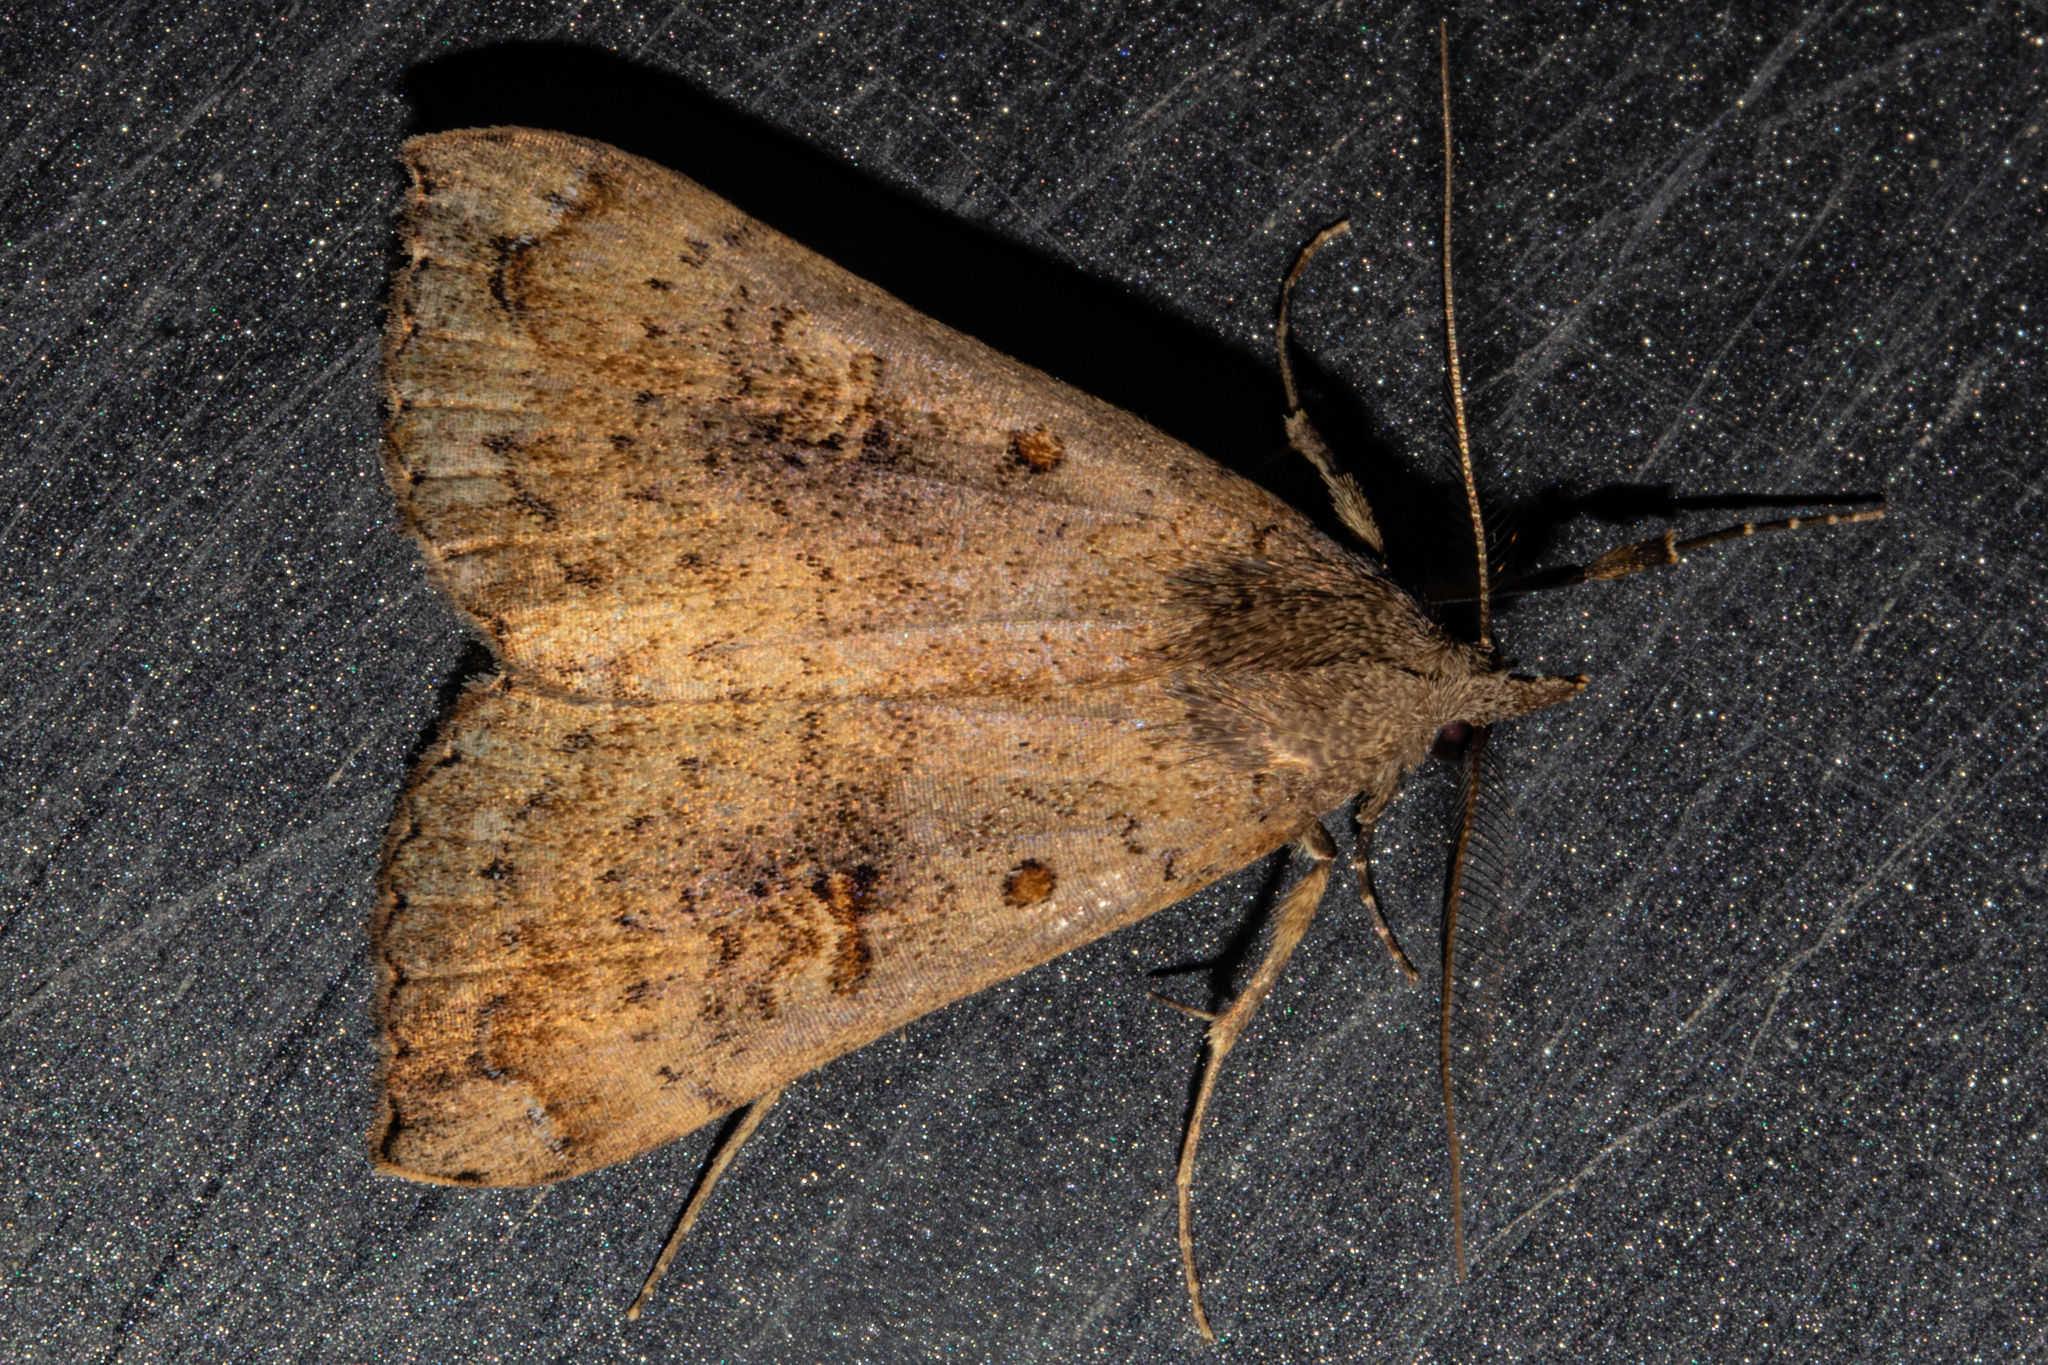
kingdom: Animalia
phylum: Arthropoda
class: Insecta
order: Lepidoptera
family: Erebidae
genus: Rhapsa
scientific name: Rhapsa scotosialis
